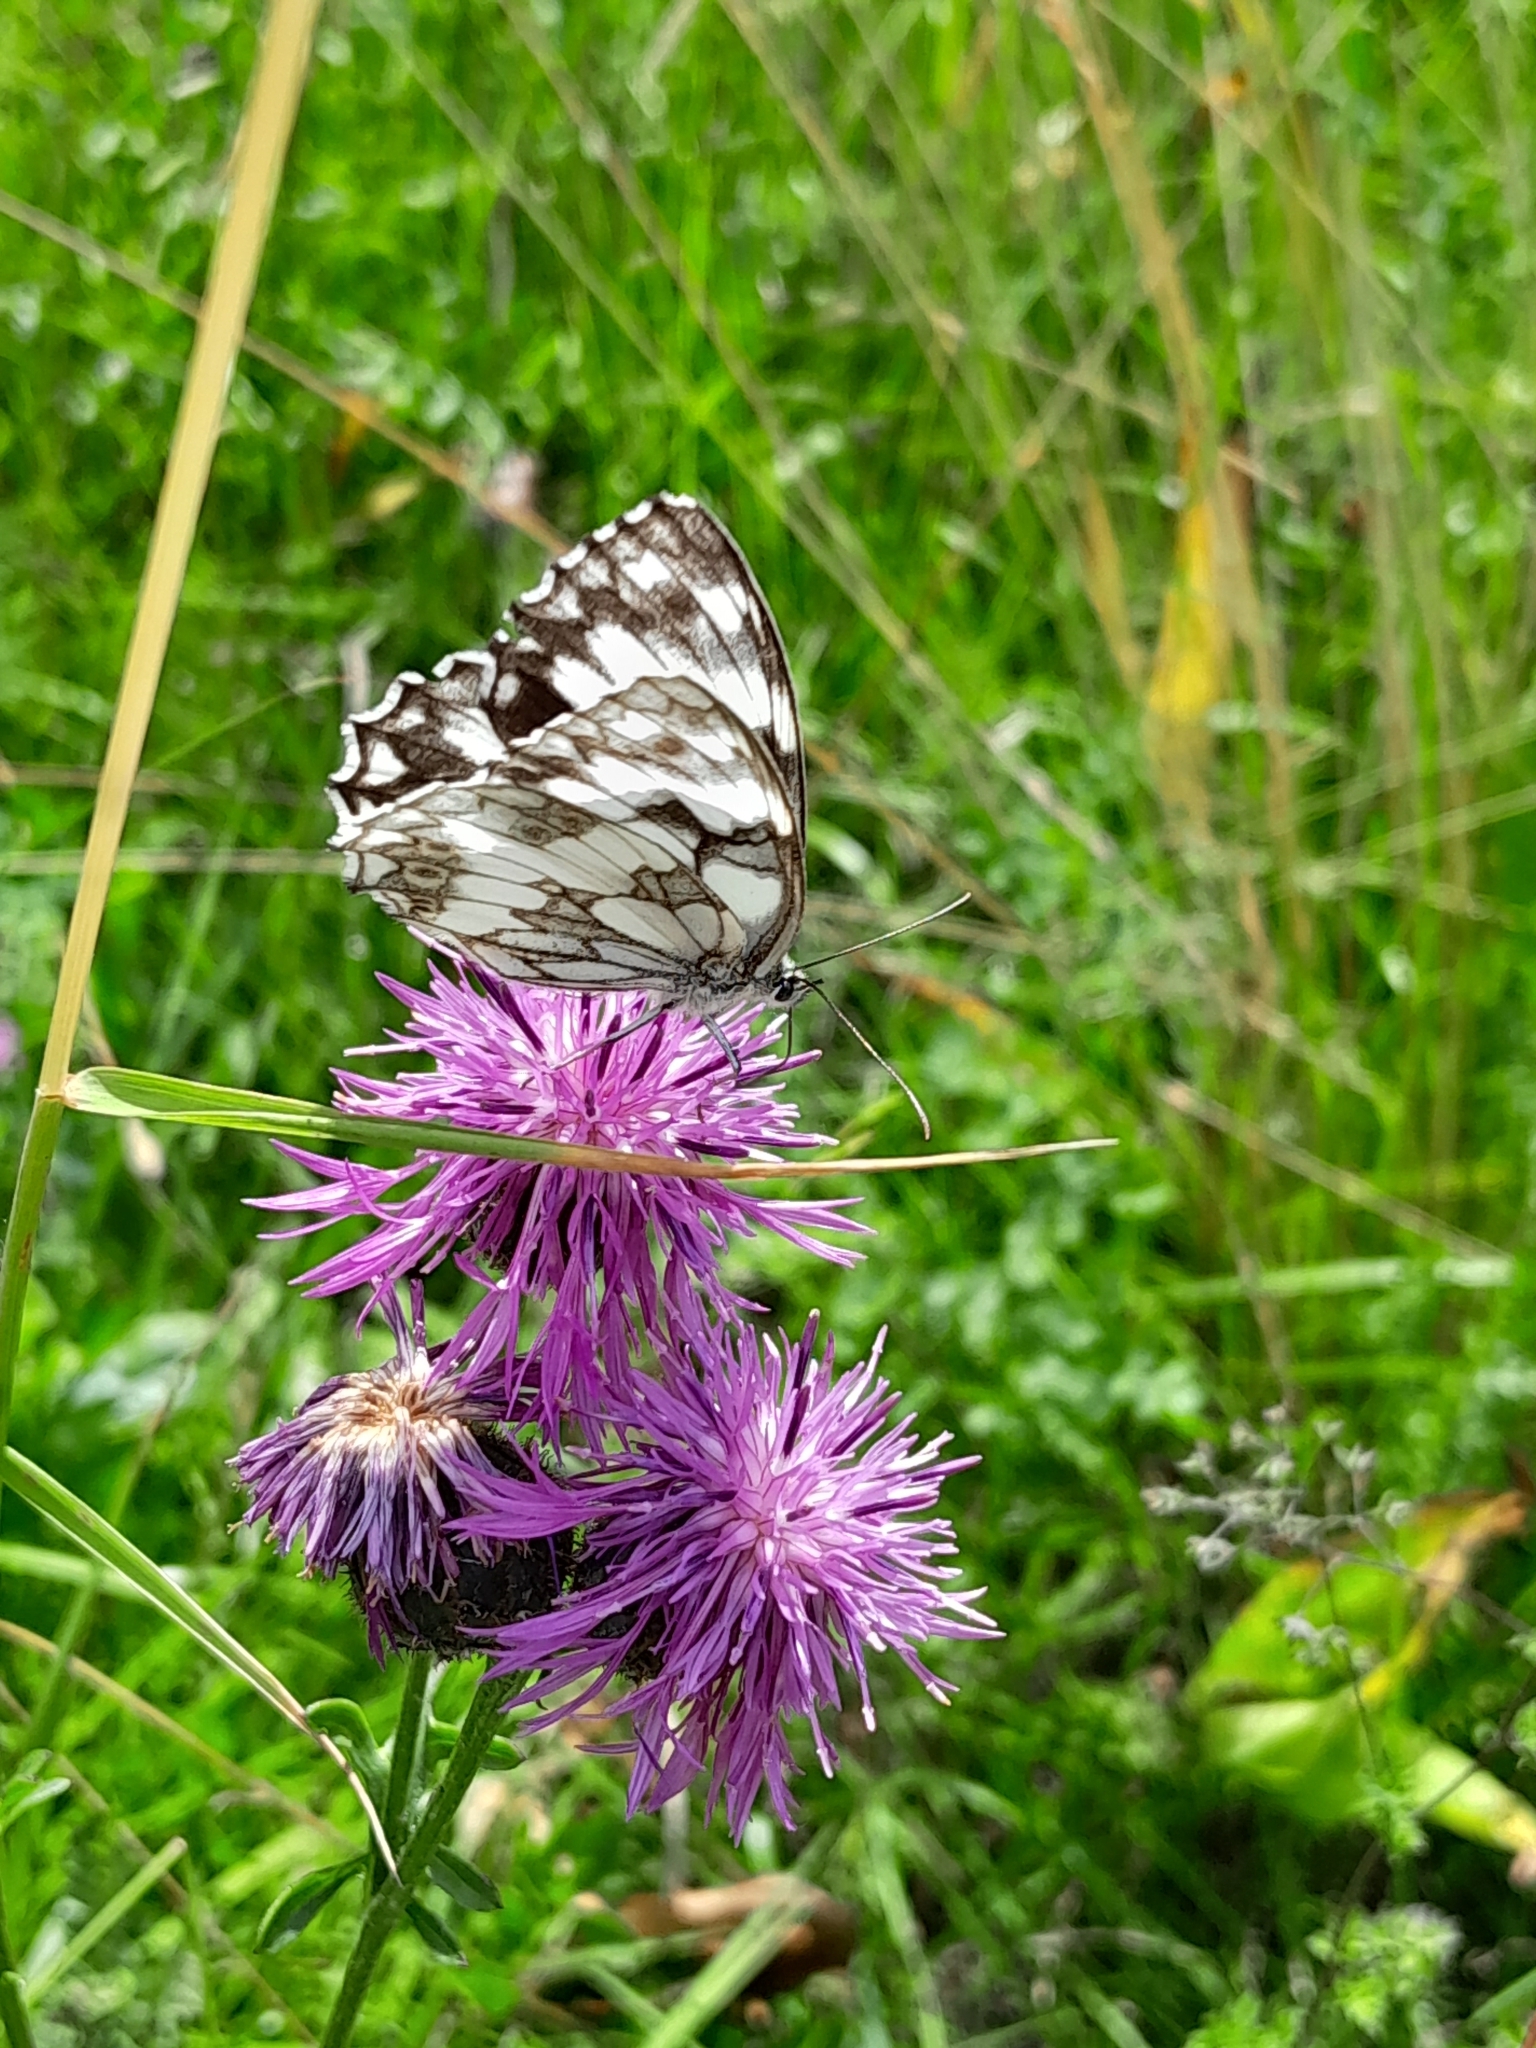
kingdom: Animalia
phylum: Arthropoda
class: Insecta
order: Lepidoptera
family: Nymphalidae
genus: Melanargia
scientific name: Melanargia galathea
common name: Marbled white
